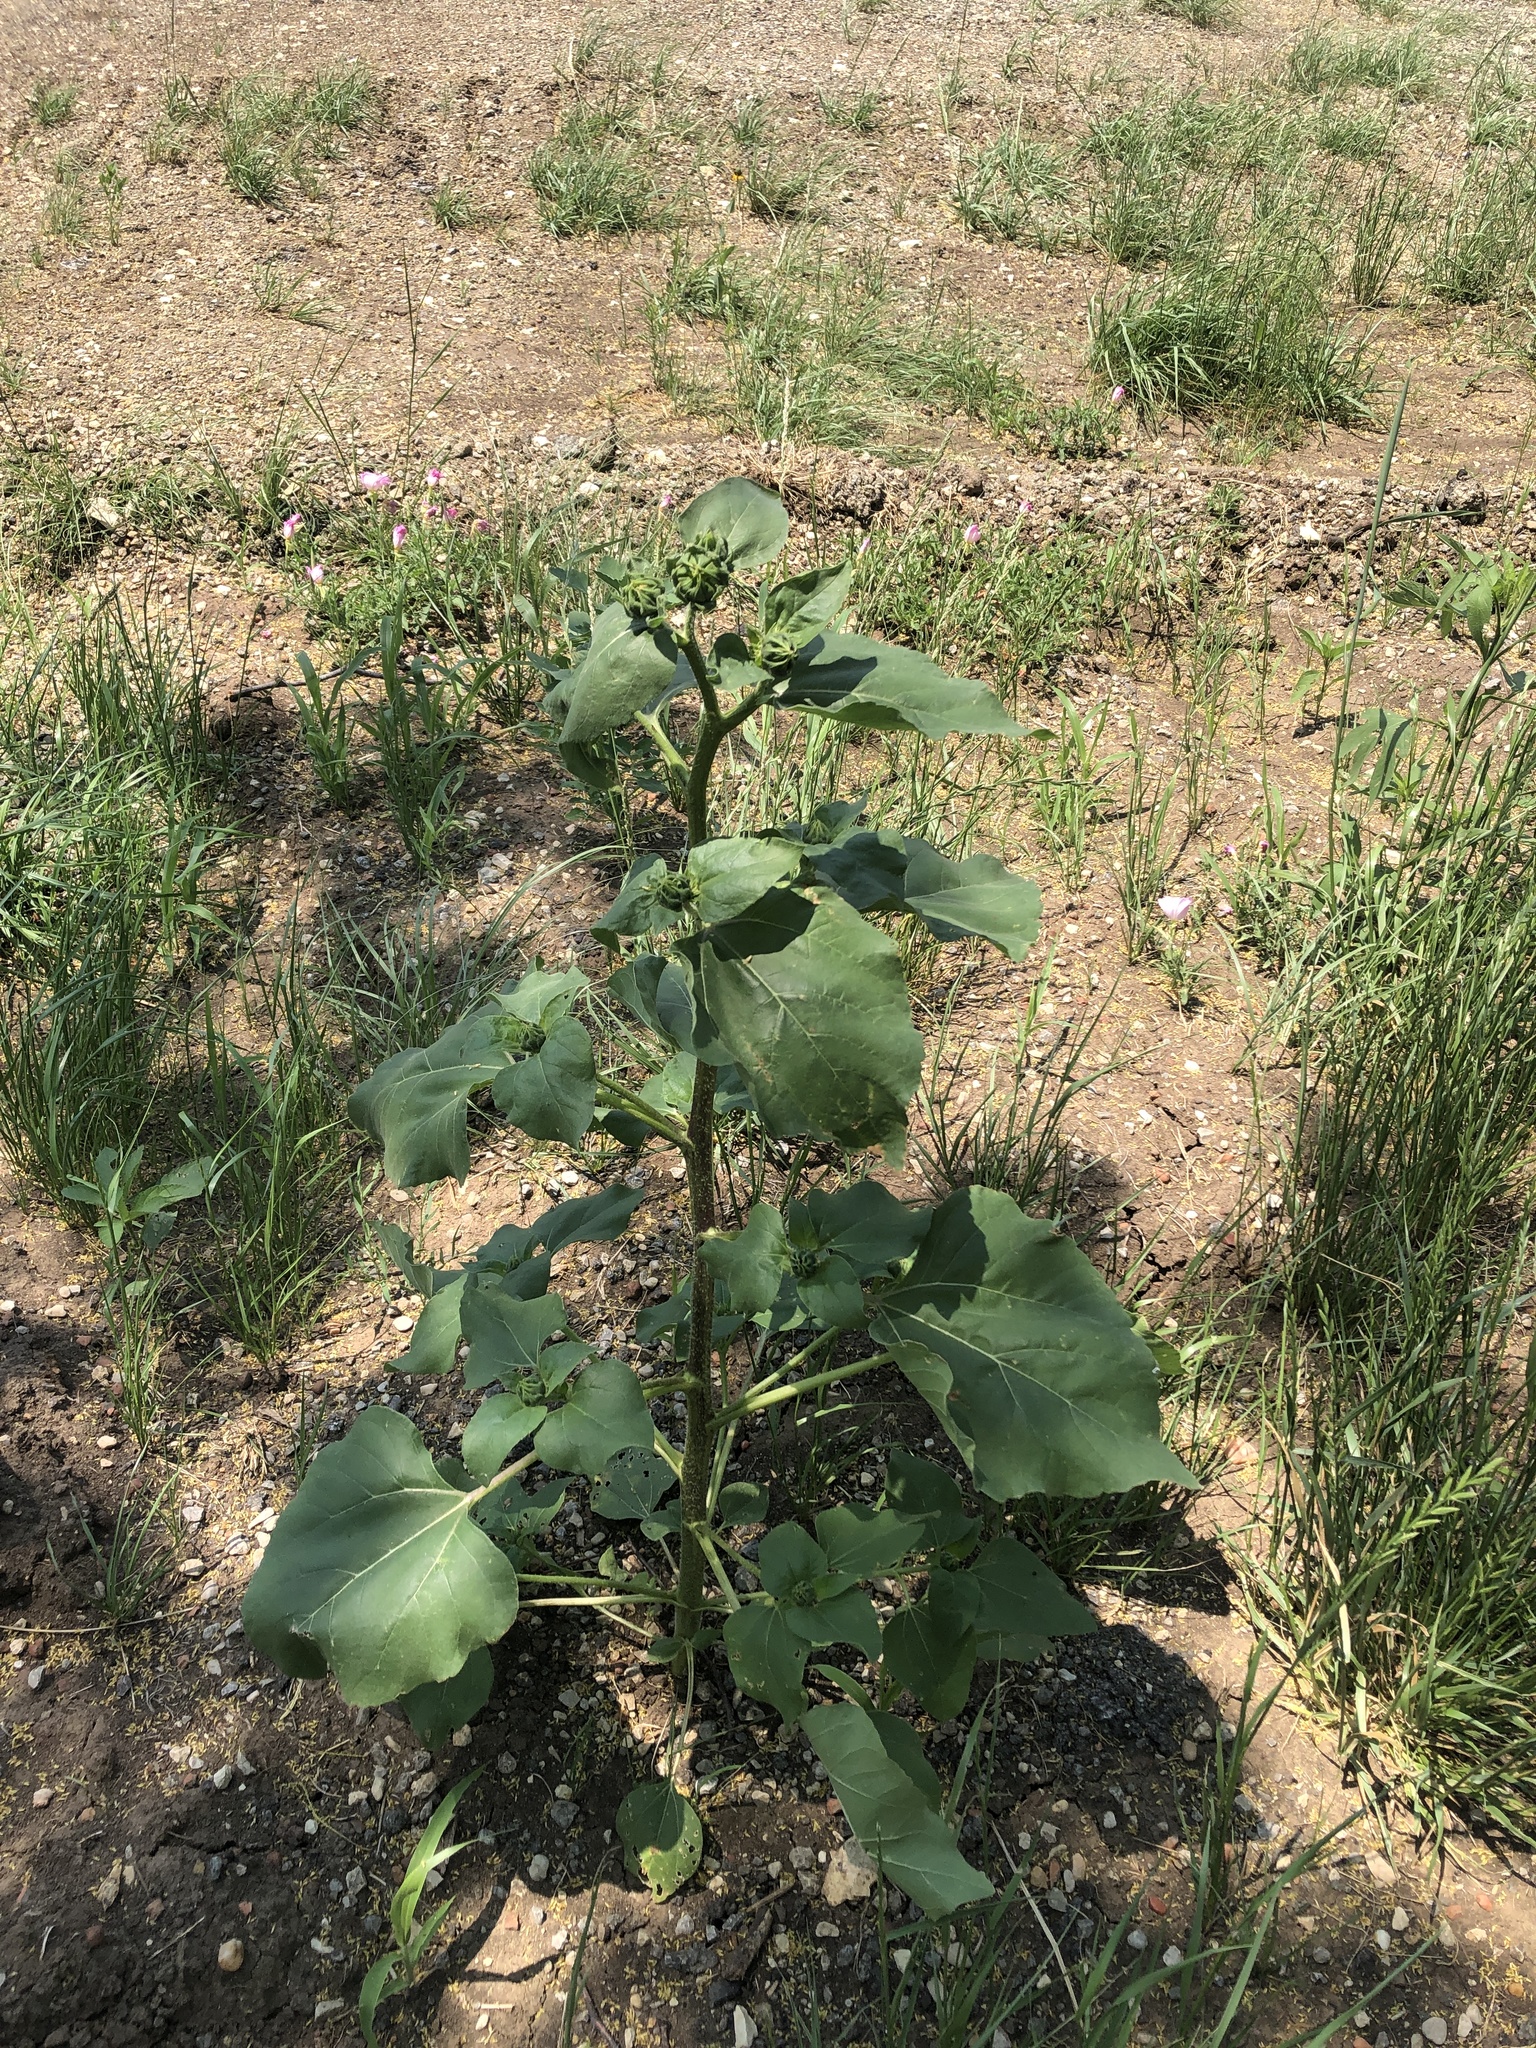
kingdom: Plantae
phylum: Tracheophyta
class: Magnoliopsida
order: Asterales
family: Asteraceae
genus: Helianthus
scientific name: Helianthus annuus
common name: Sunflower
